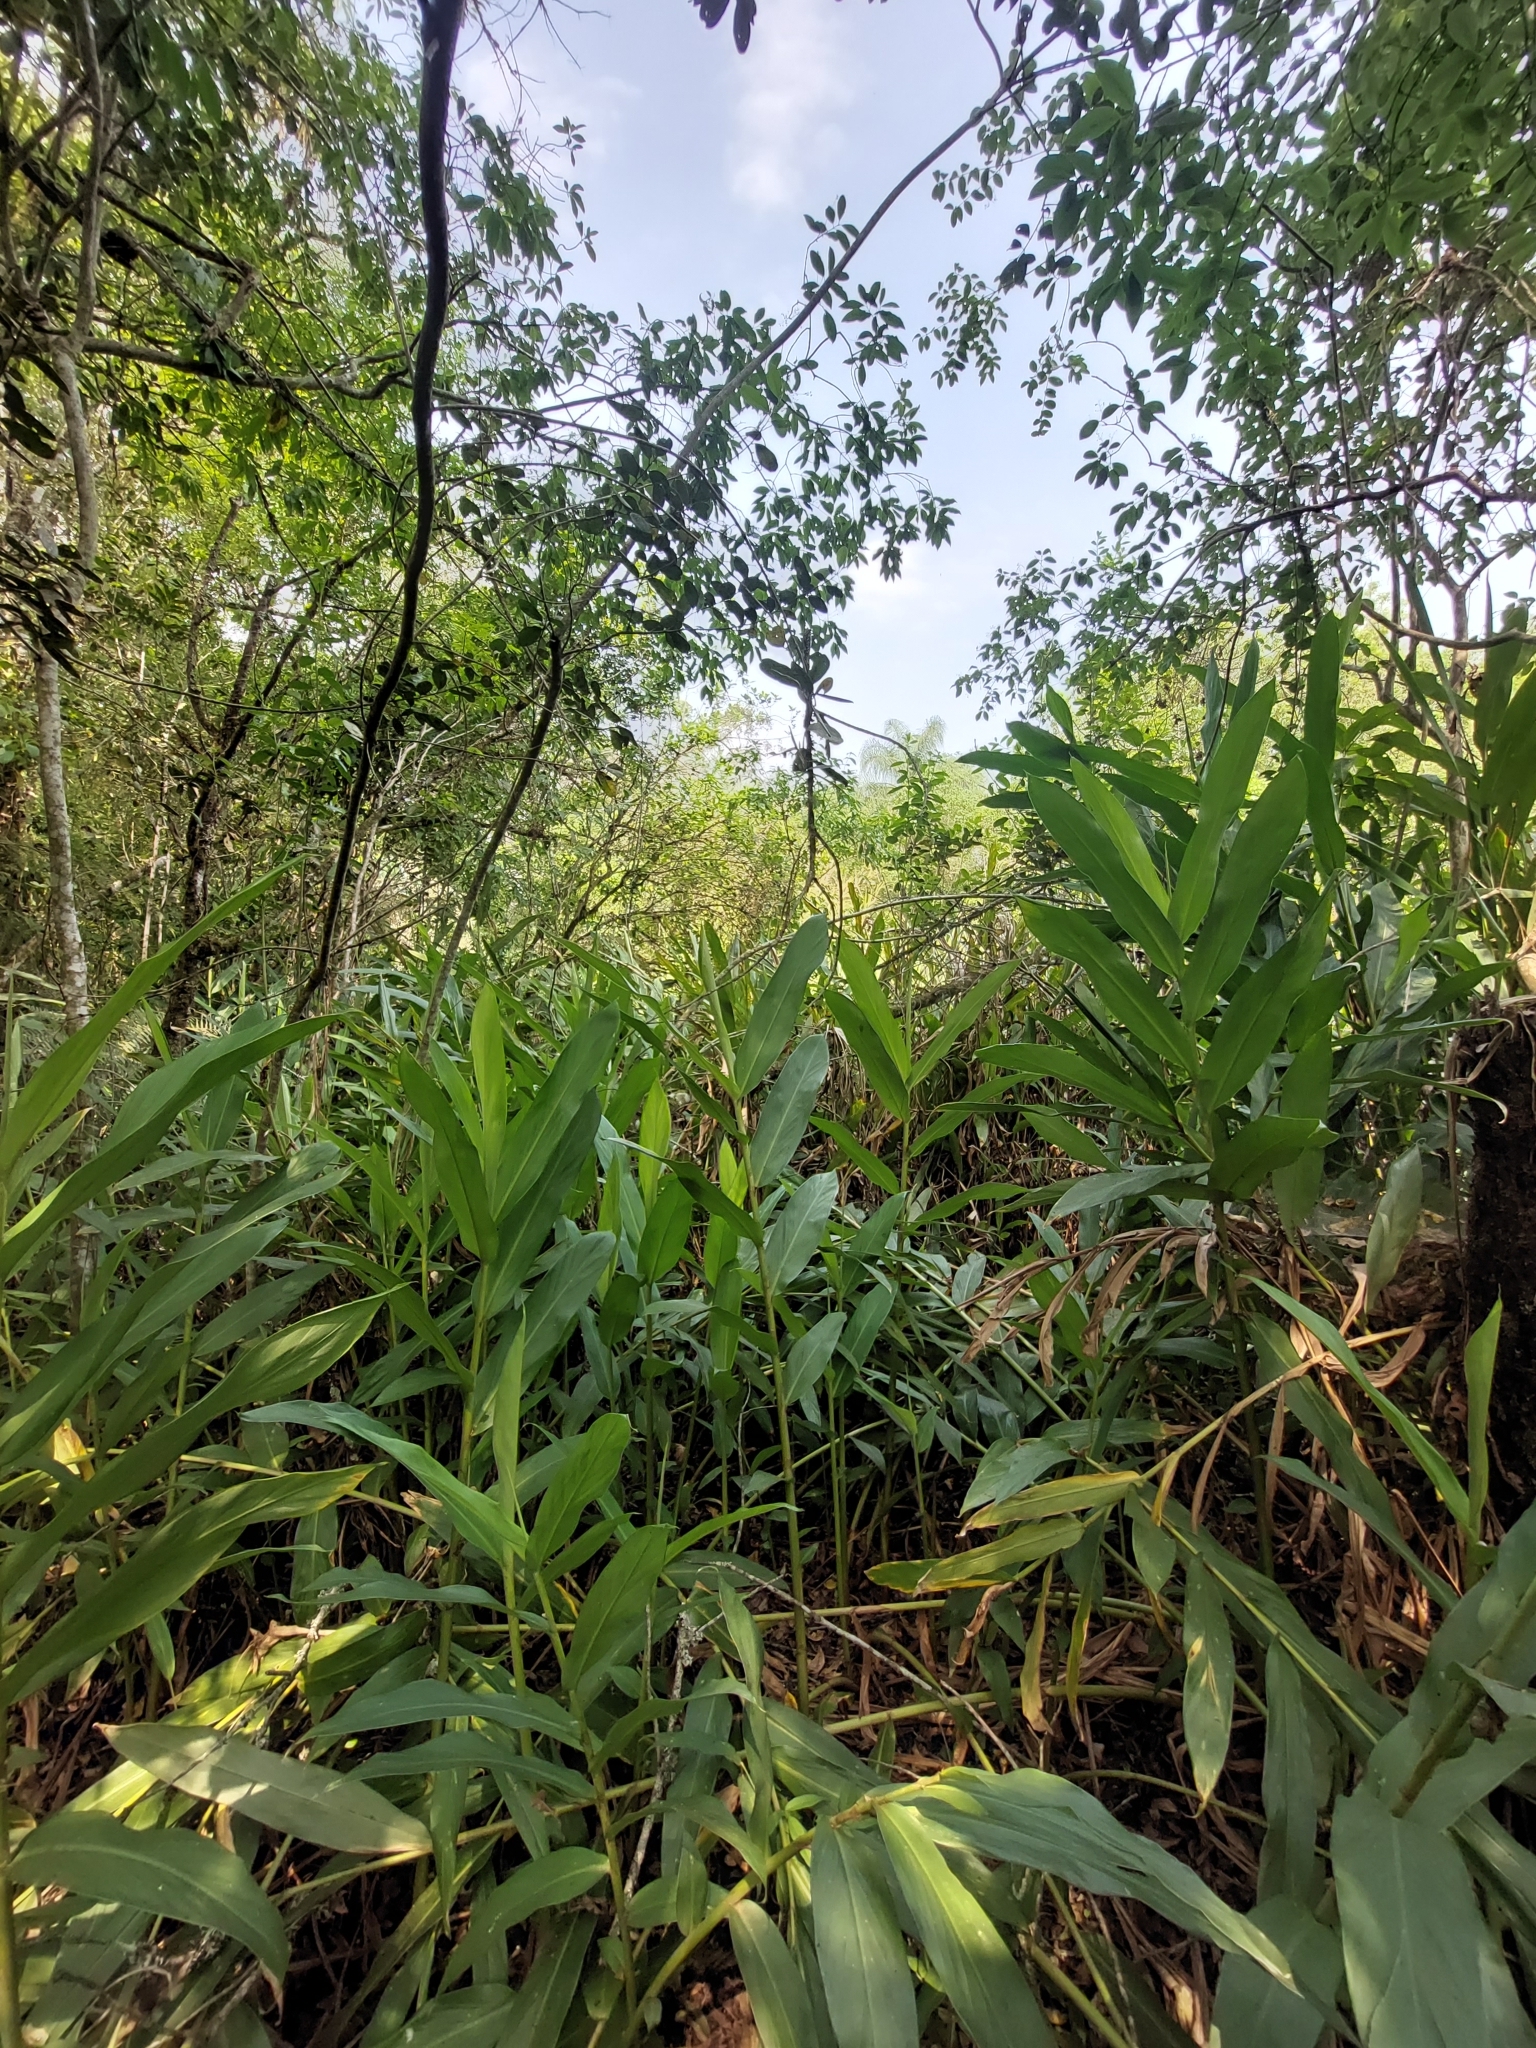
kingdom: Plantae
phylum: Tracheophyta
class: Liliopsida
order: Zingiberales
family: Zingiberaceae
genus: Hedychium
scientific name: Hedychium coronarium
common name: White garland-lily
